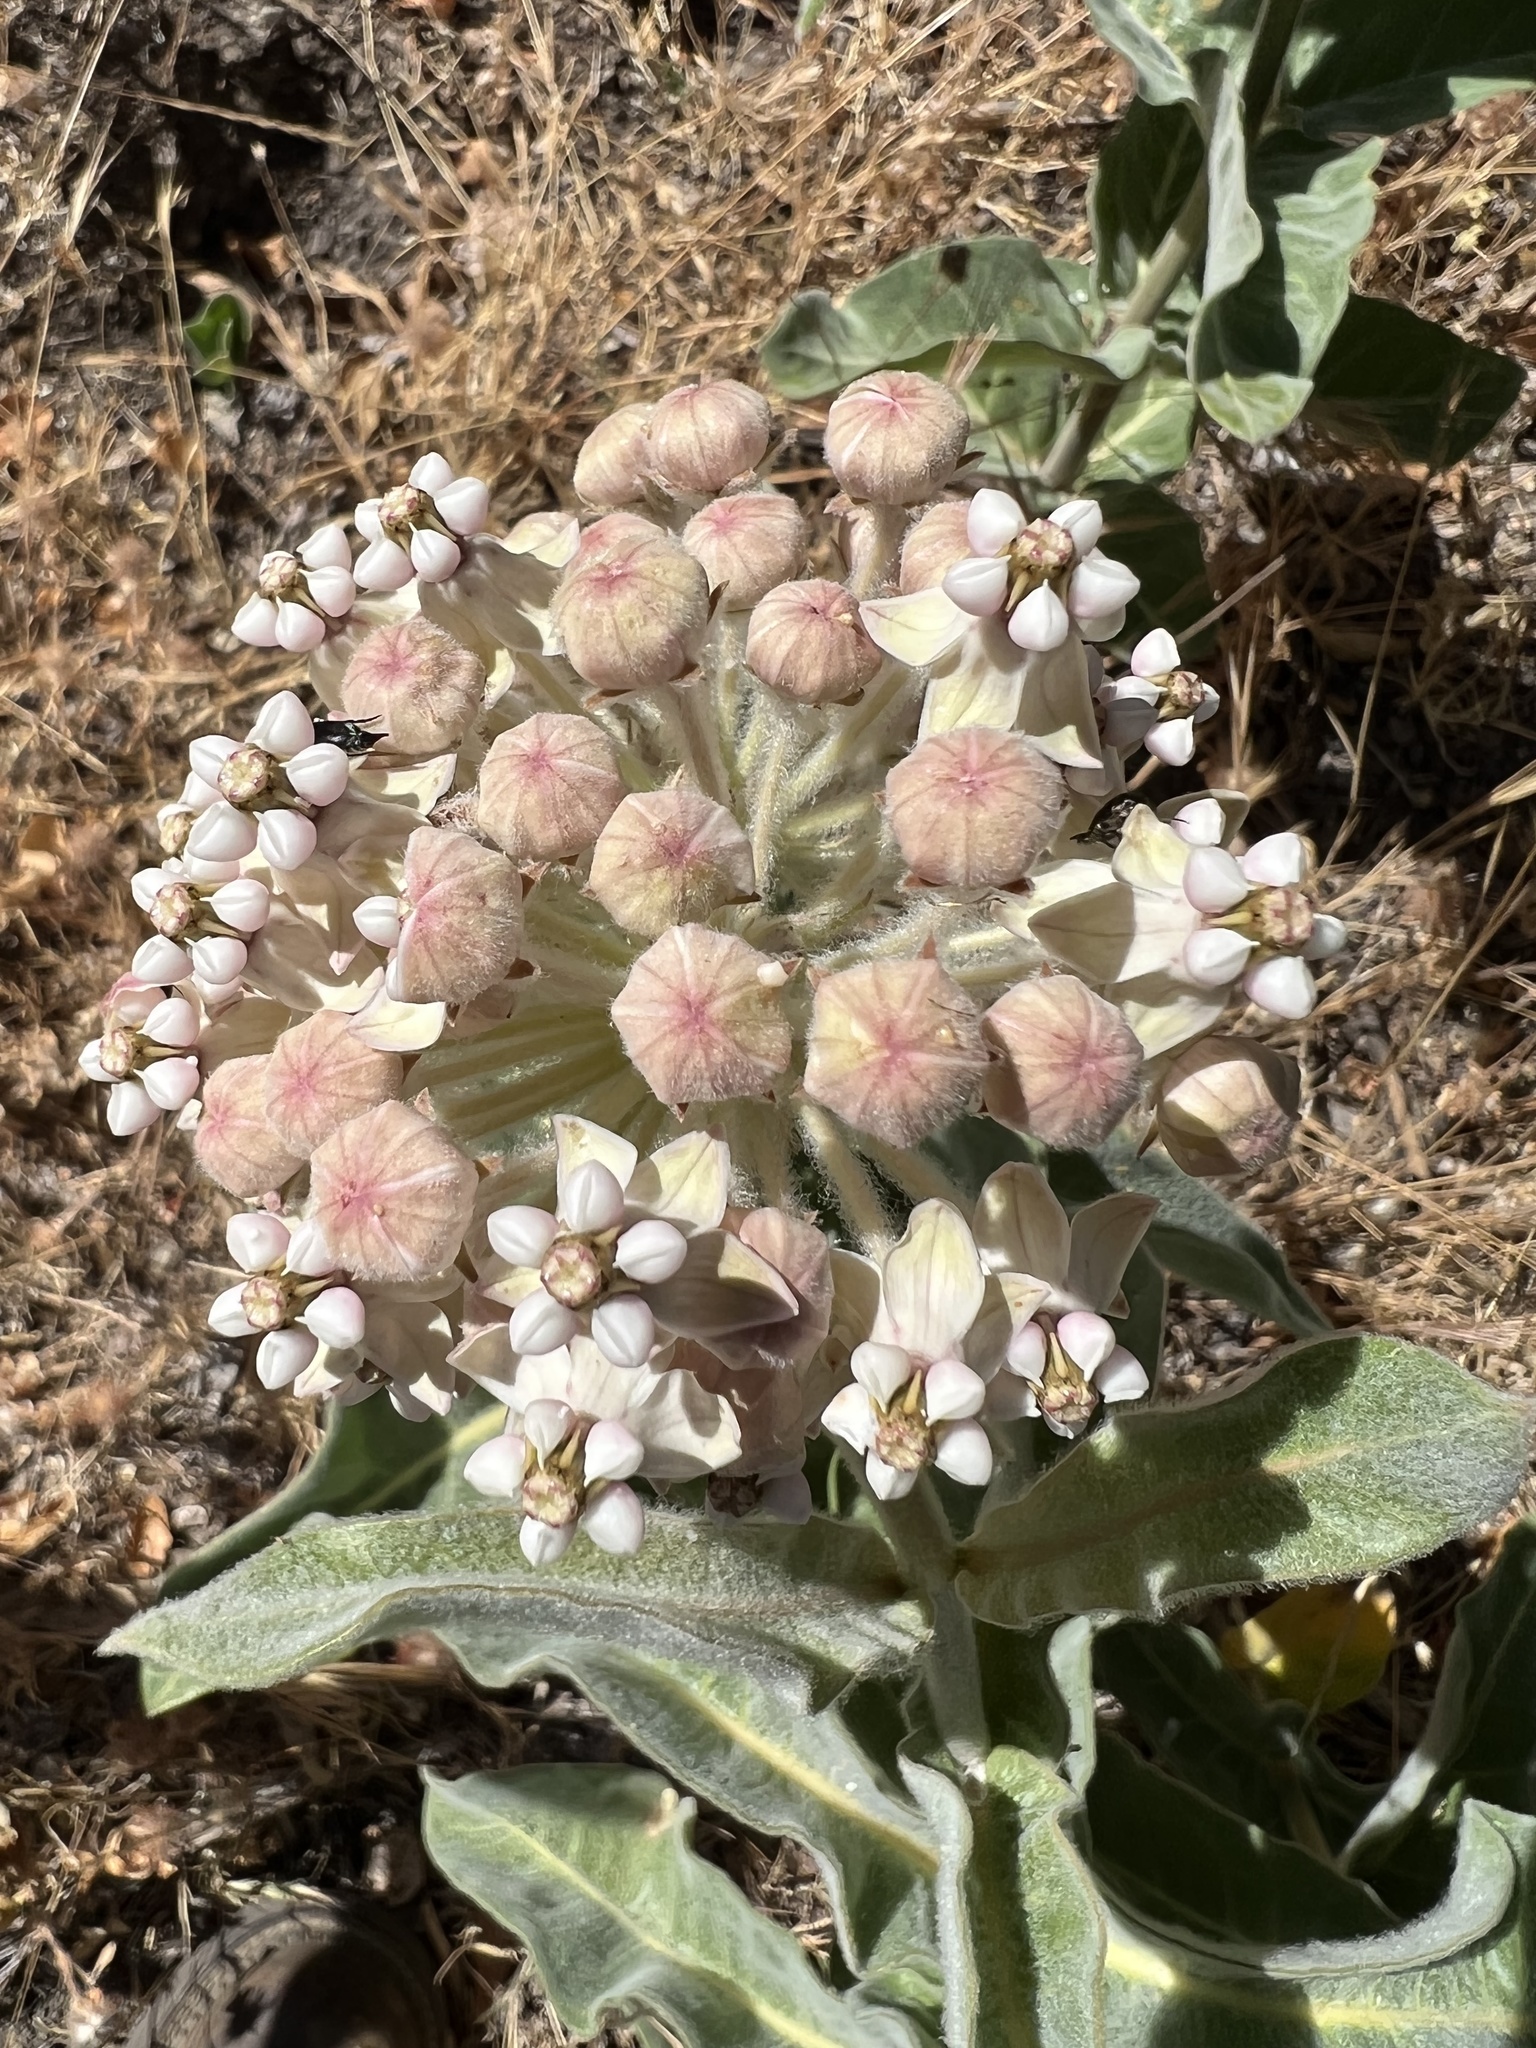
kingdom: Plantae
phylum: Tracheophyta
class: Magnoliopsida
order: Gentianales
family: Apocynaceae
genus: Asclepias
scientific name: Asclepias eriocarpa
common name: Indian milkweed
